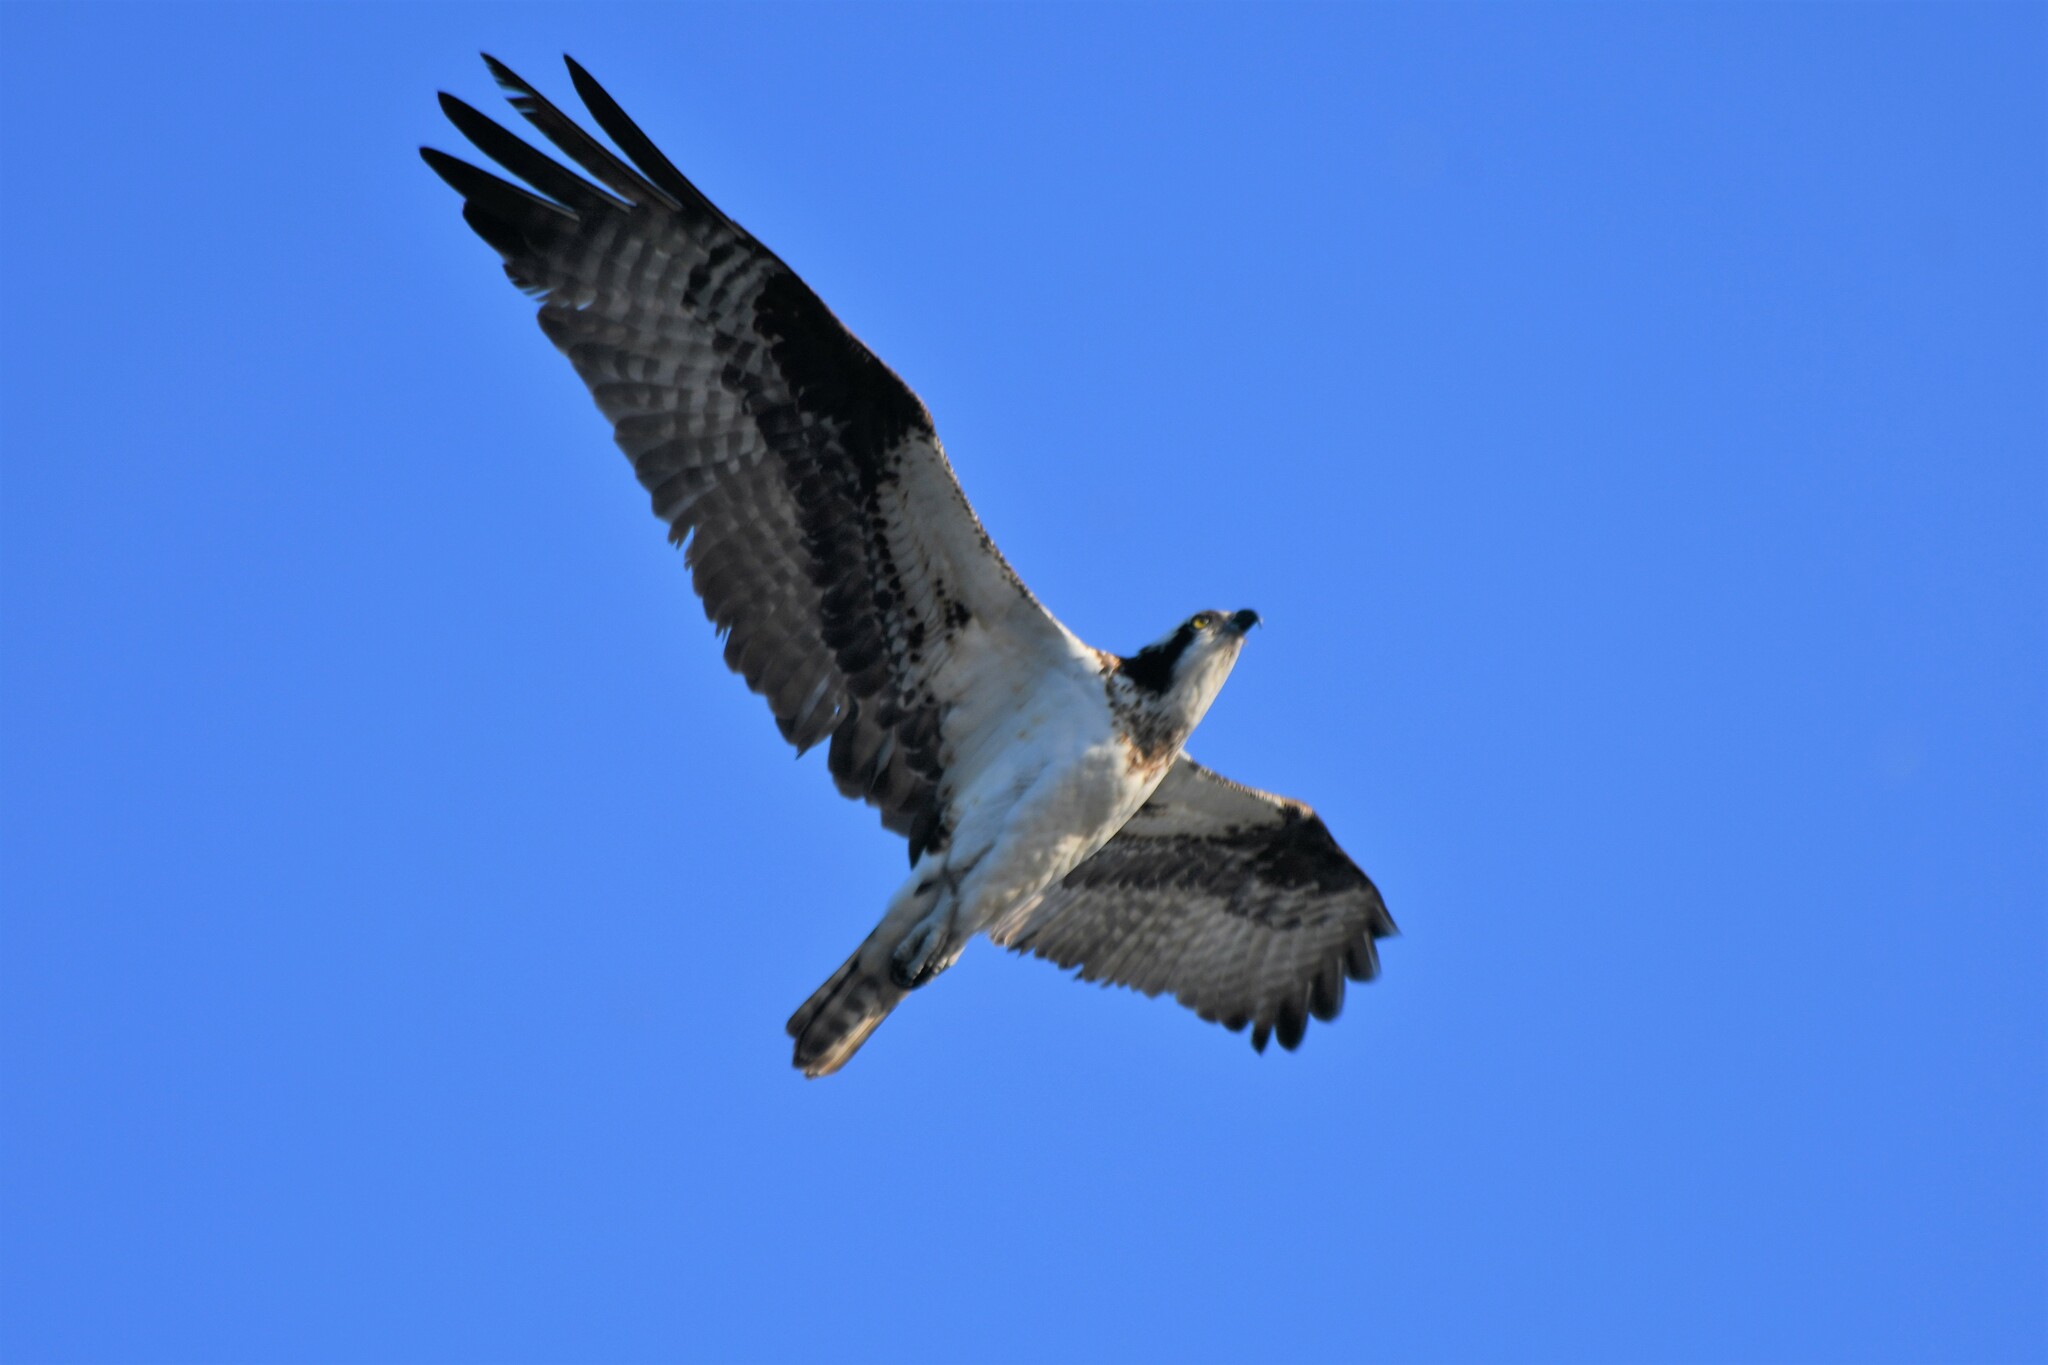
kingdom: Animalia
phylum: Chordata
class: Aves
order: Accipitriformes
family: Pandionidae
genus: Pandion
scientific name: Pandion haliaetus
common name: Osprey
